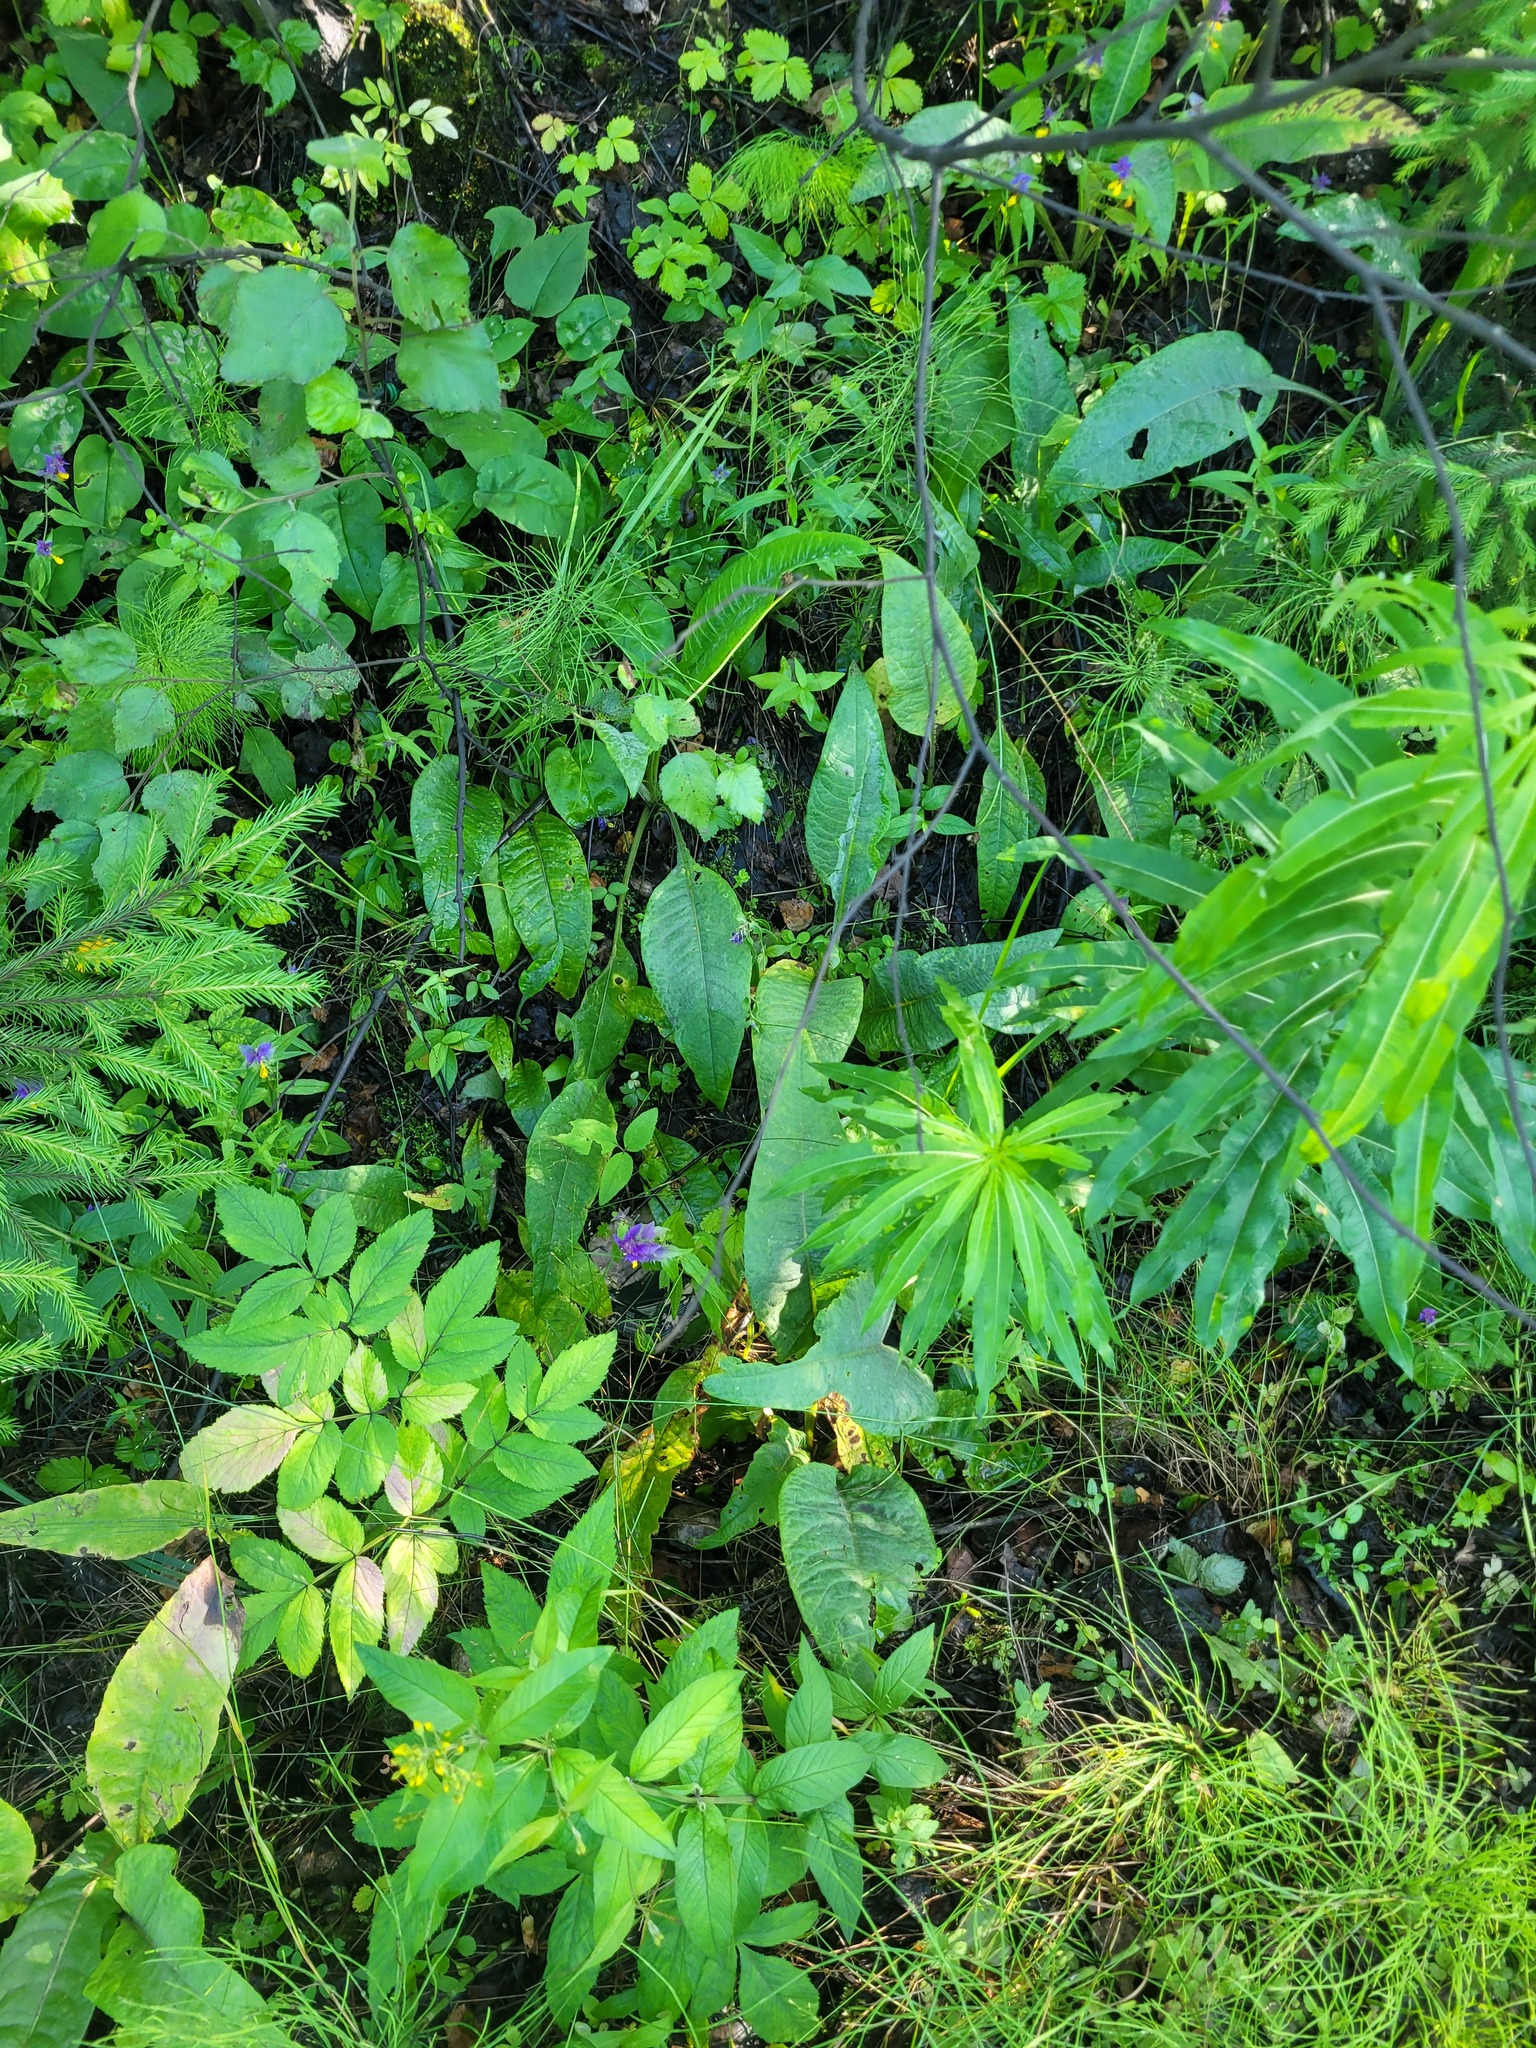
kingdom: Plantae
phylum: Tracheophyta
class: Magnoliopsida
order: Asterales
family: Asteraceae
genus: Cirsium
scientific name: Cirsium heterophyllum
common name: Melancholy thistle
